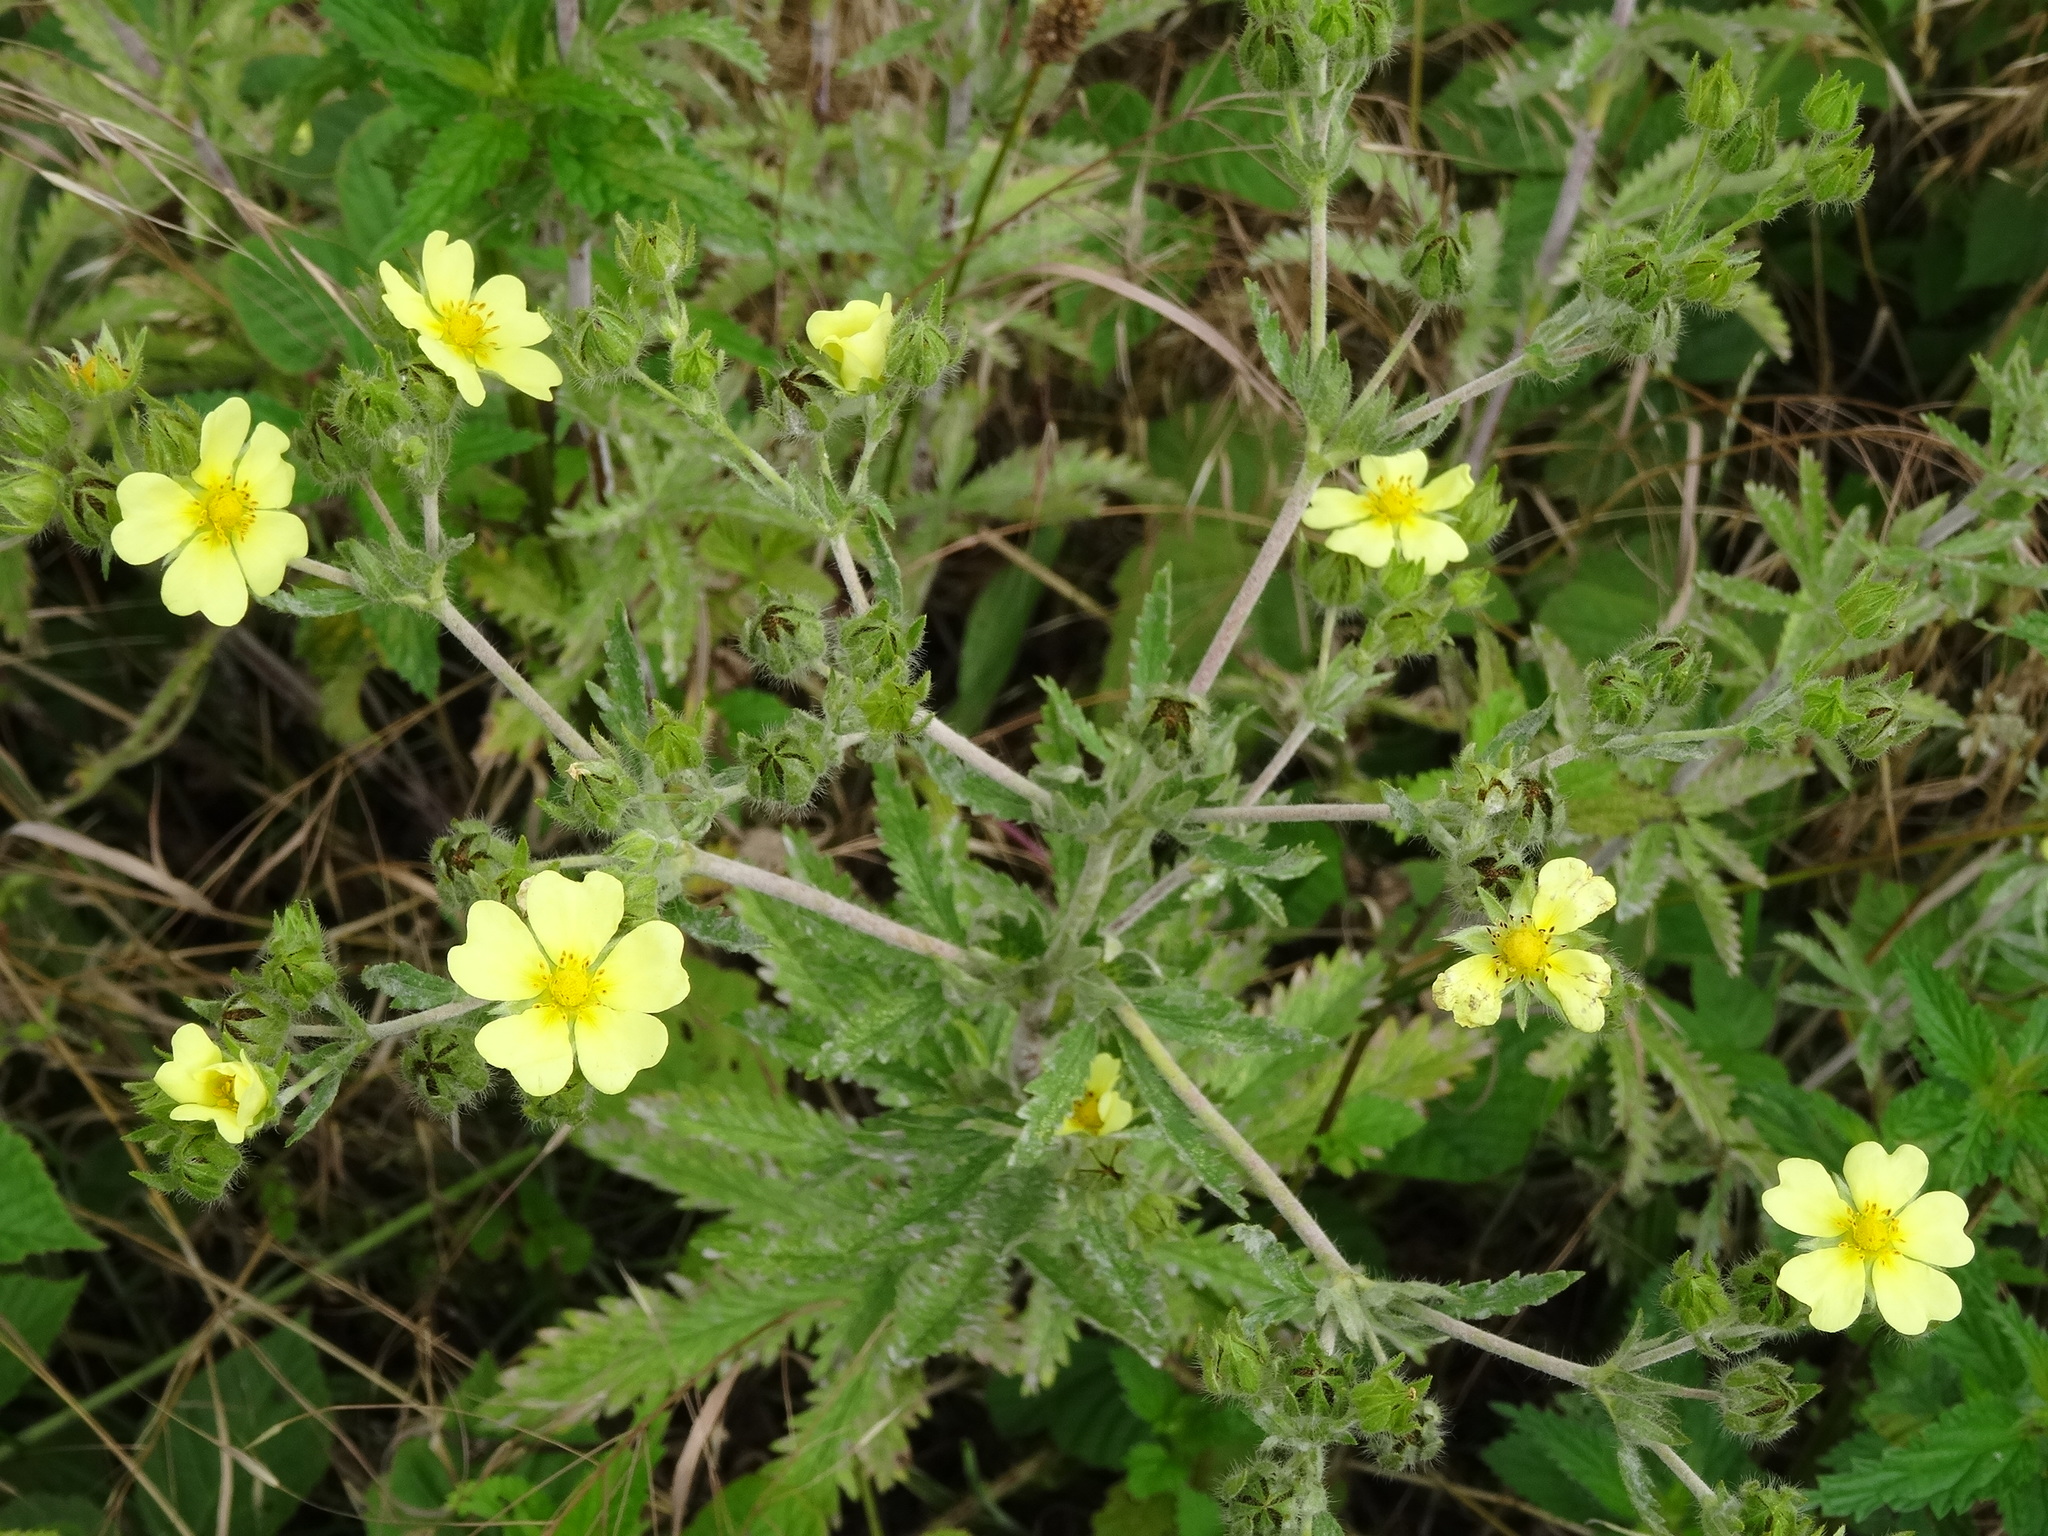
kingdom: Plantae
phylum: Tracheophyta
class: Magnoliopsida
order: Rosales
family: Rosaceae
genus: Potentilla
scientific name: Potentilla recta
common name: Sulphur cinquefoil
